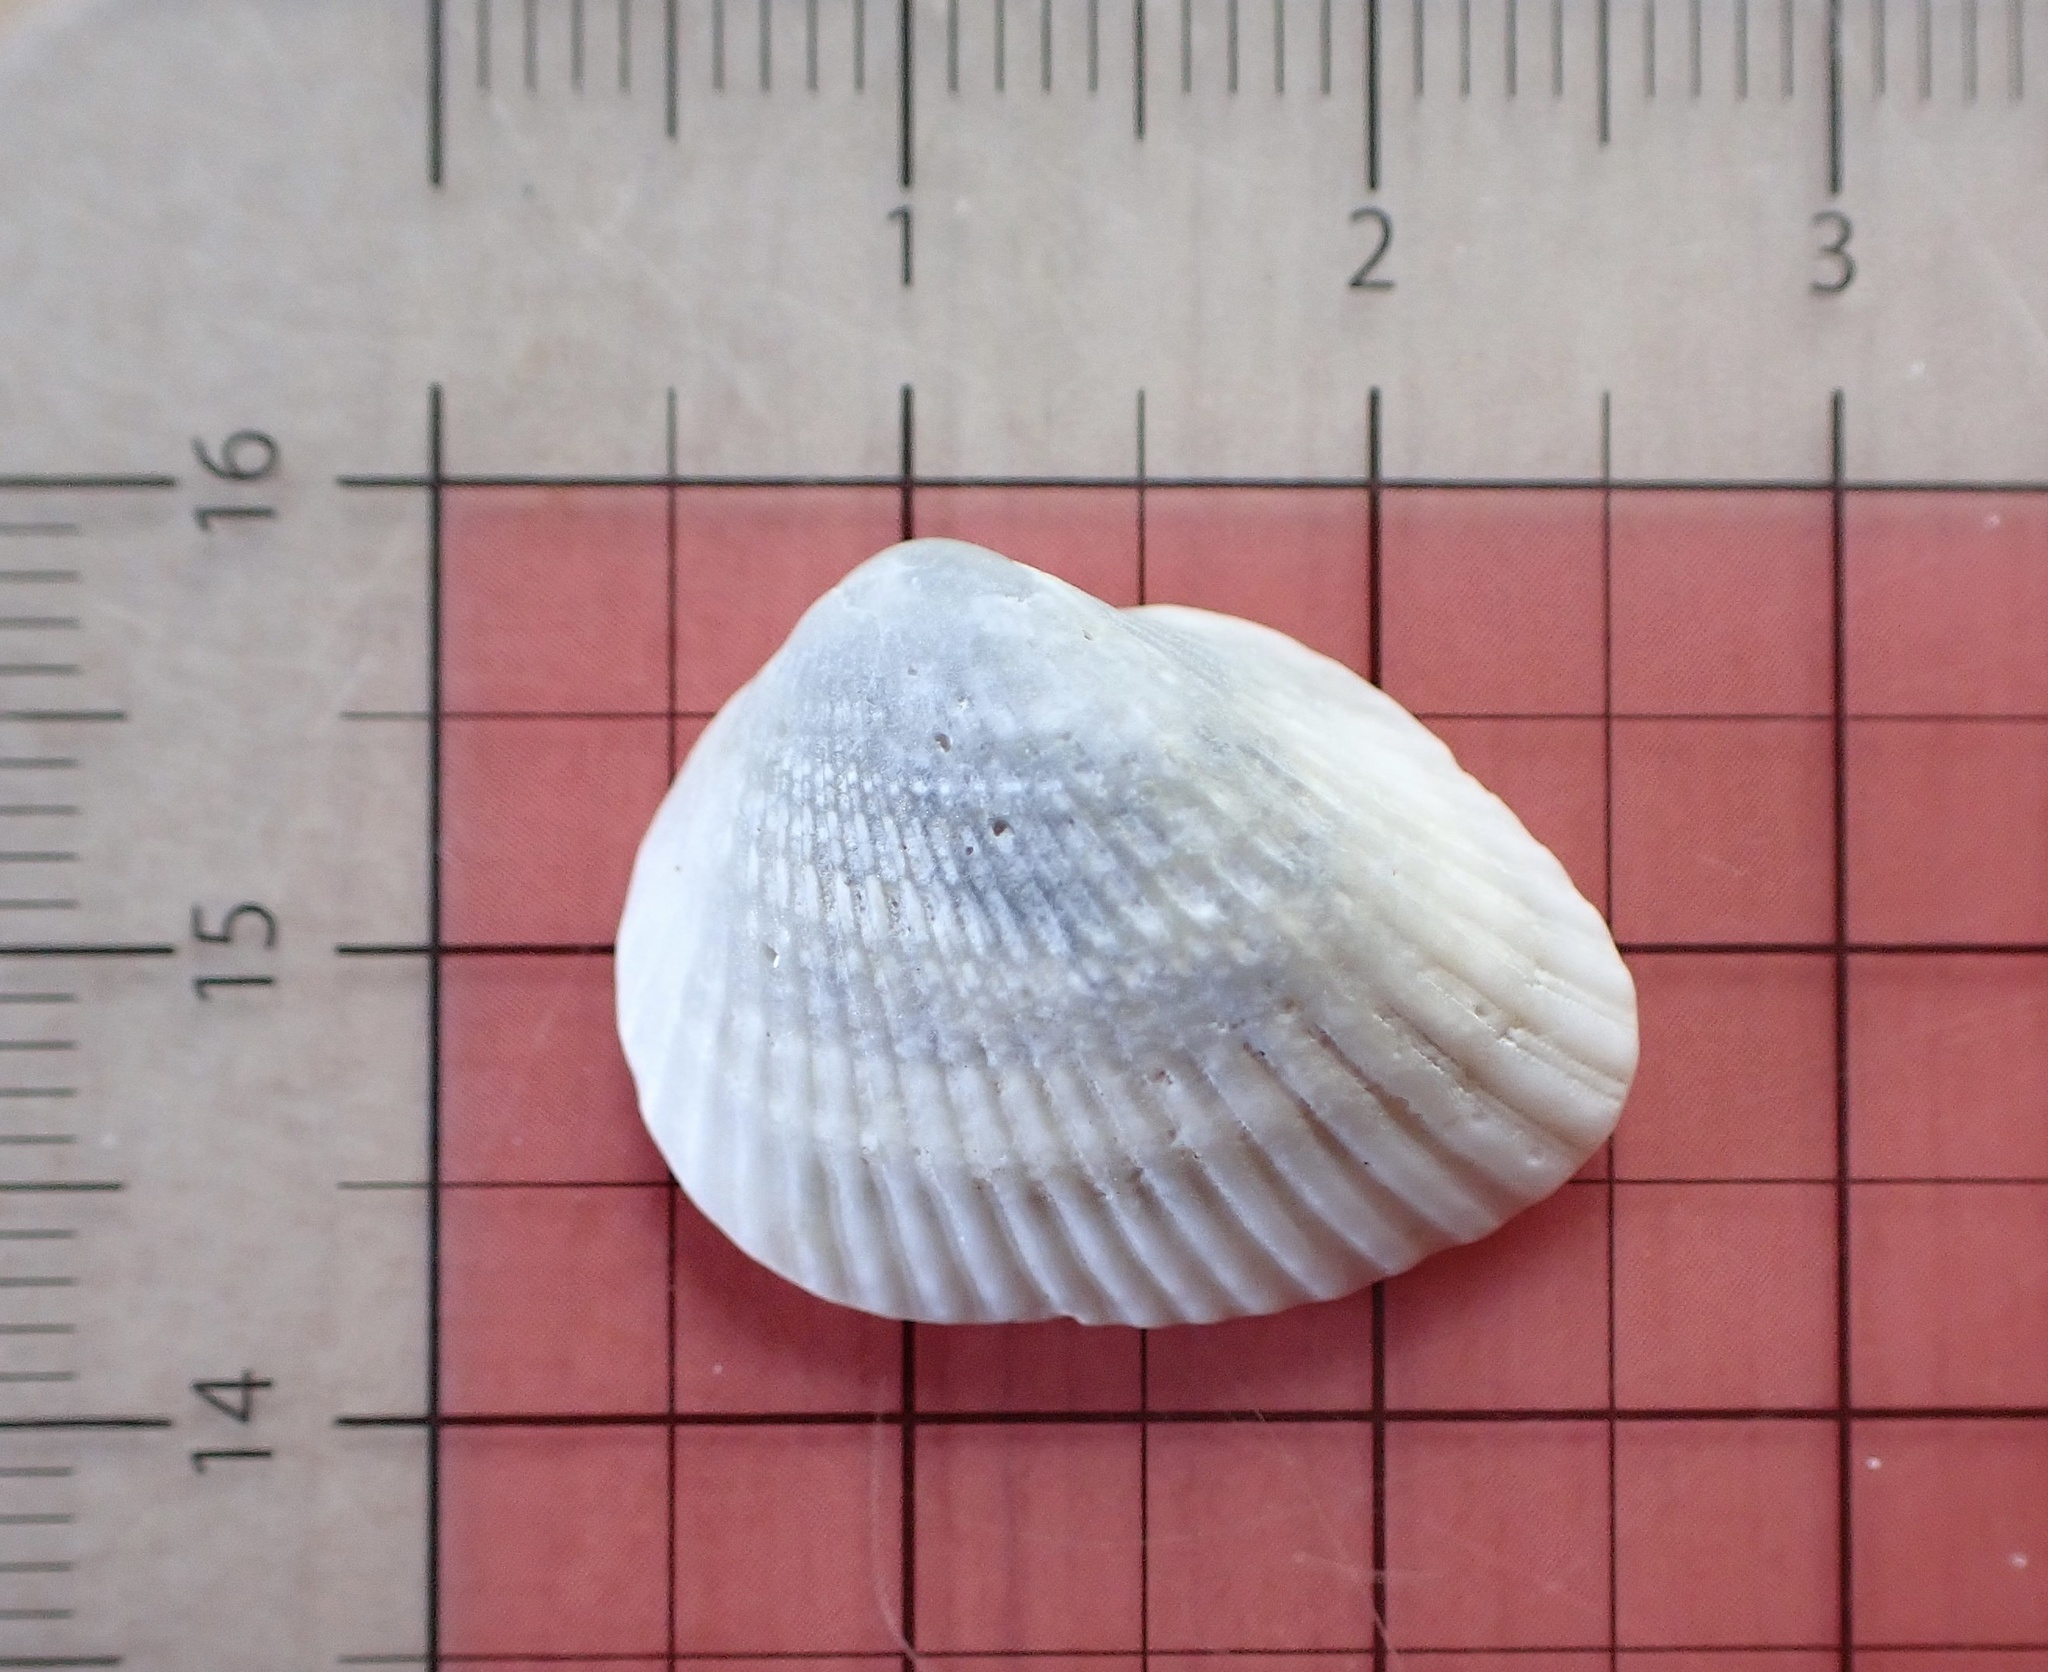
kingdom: Animalia
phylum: Mollusca
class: Bivalvia
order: Arcida
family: Noetiidae
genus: Noetia
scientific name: Noetia ponderosa
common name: Ponderous ark
